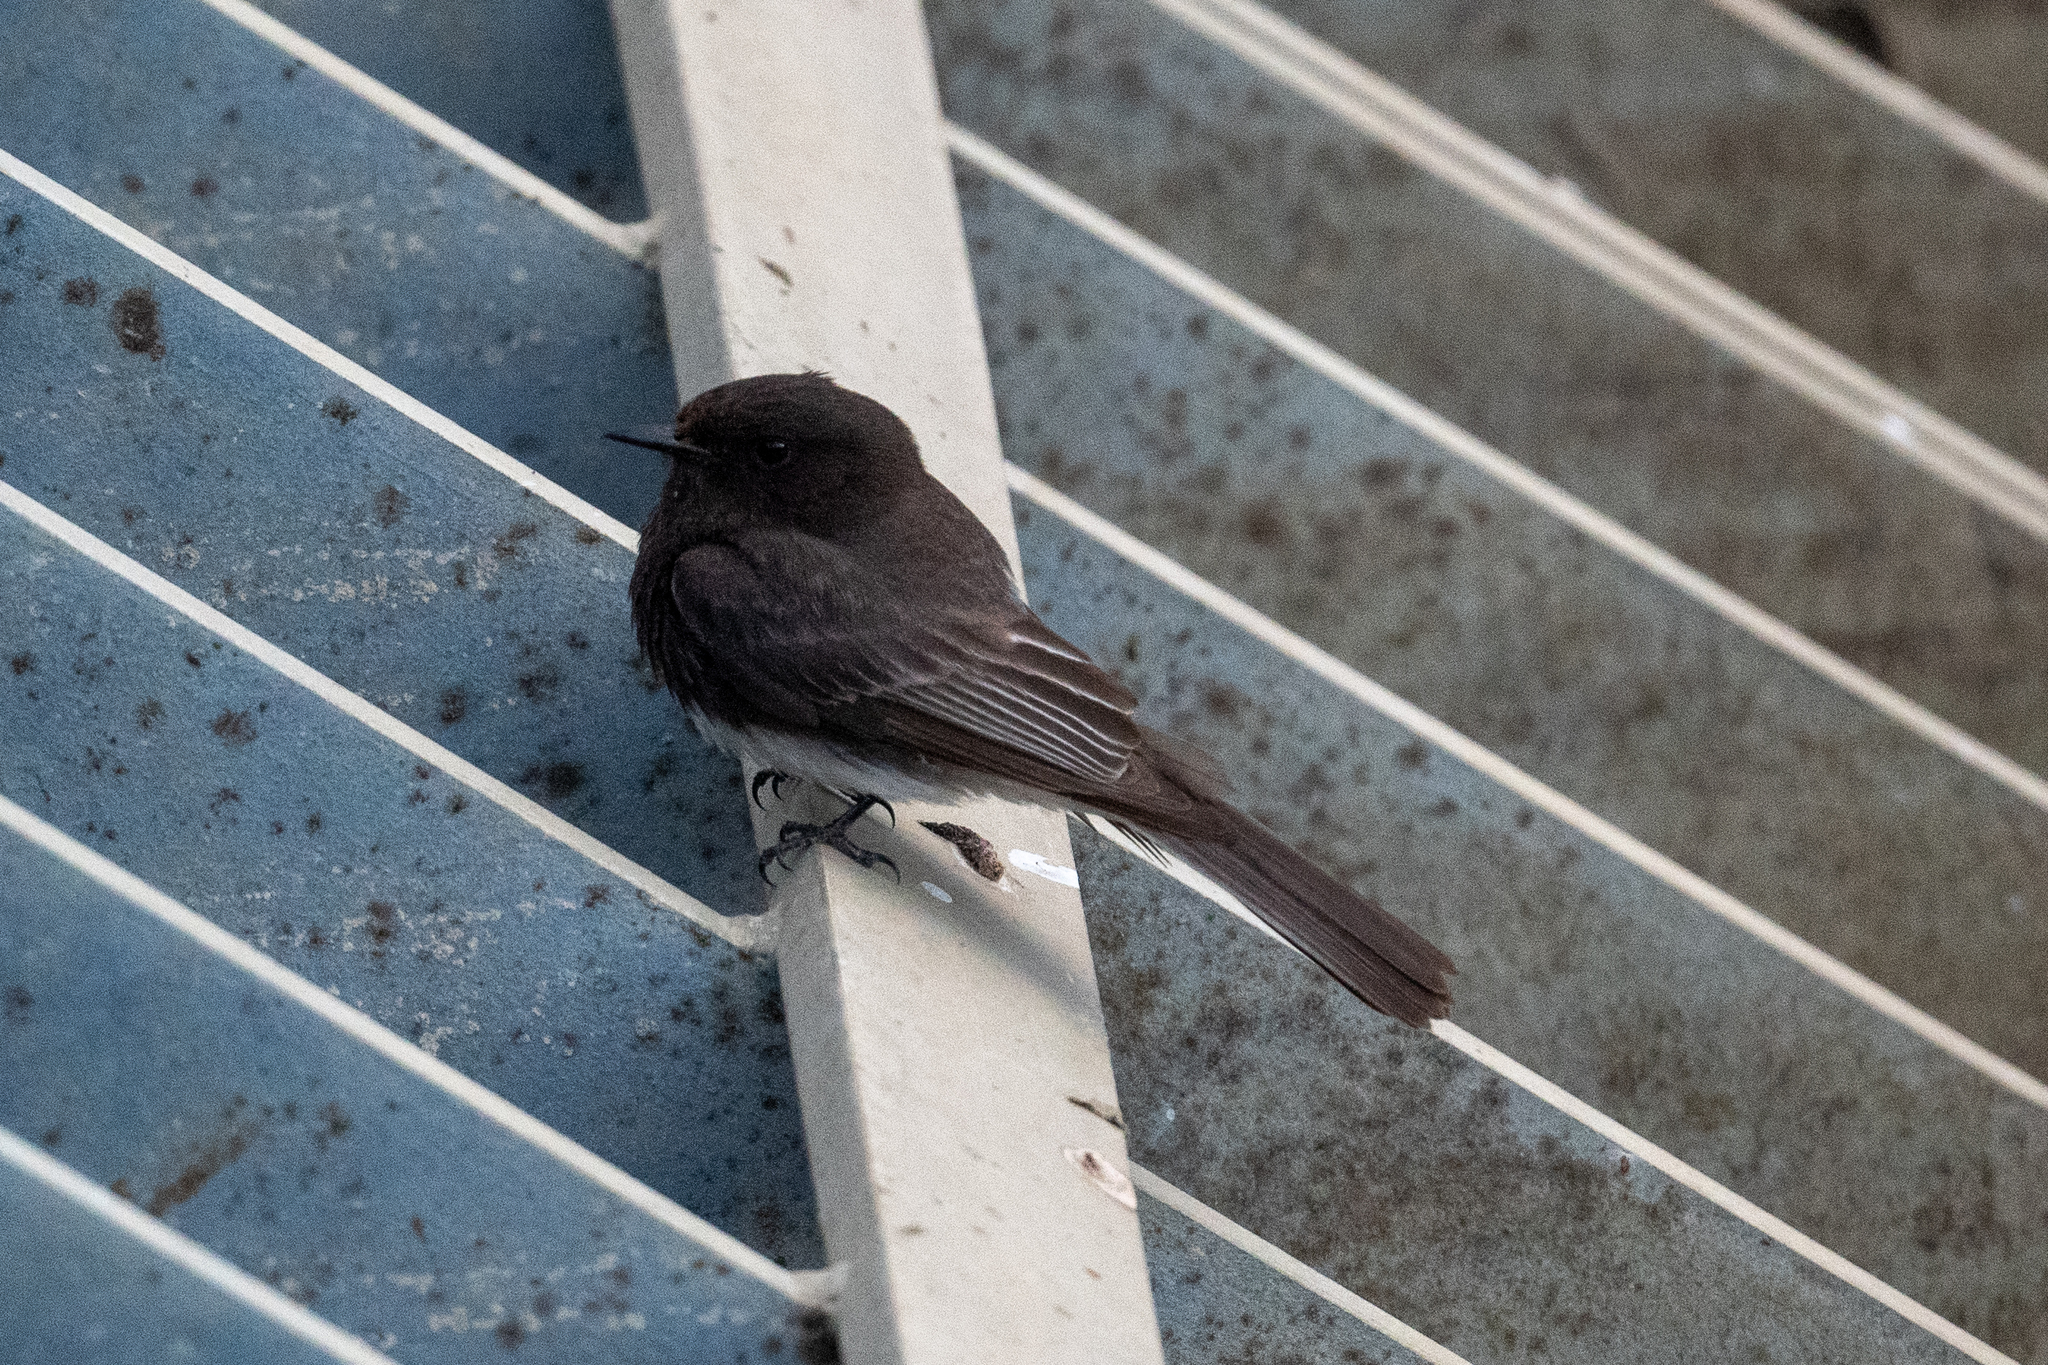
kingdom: Animalia
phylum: Chordata
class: Aves
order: Passeriformes
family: Tyrannidae
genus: Sayornis
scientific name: Sayornis nigricans
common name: Black phoebe
